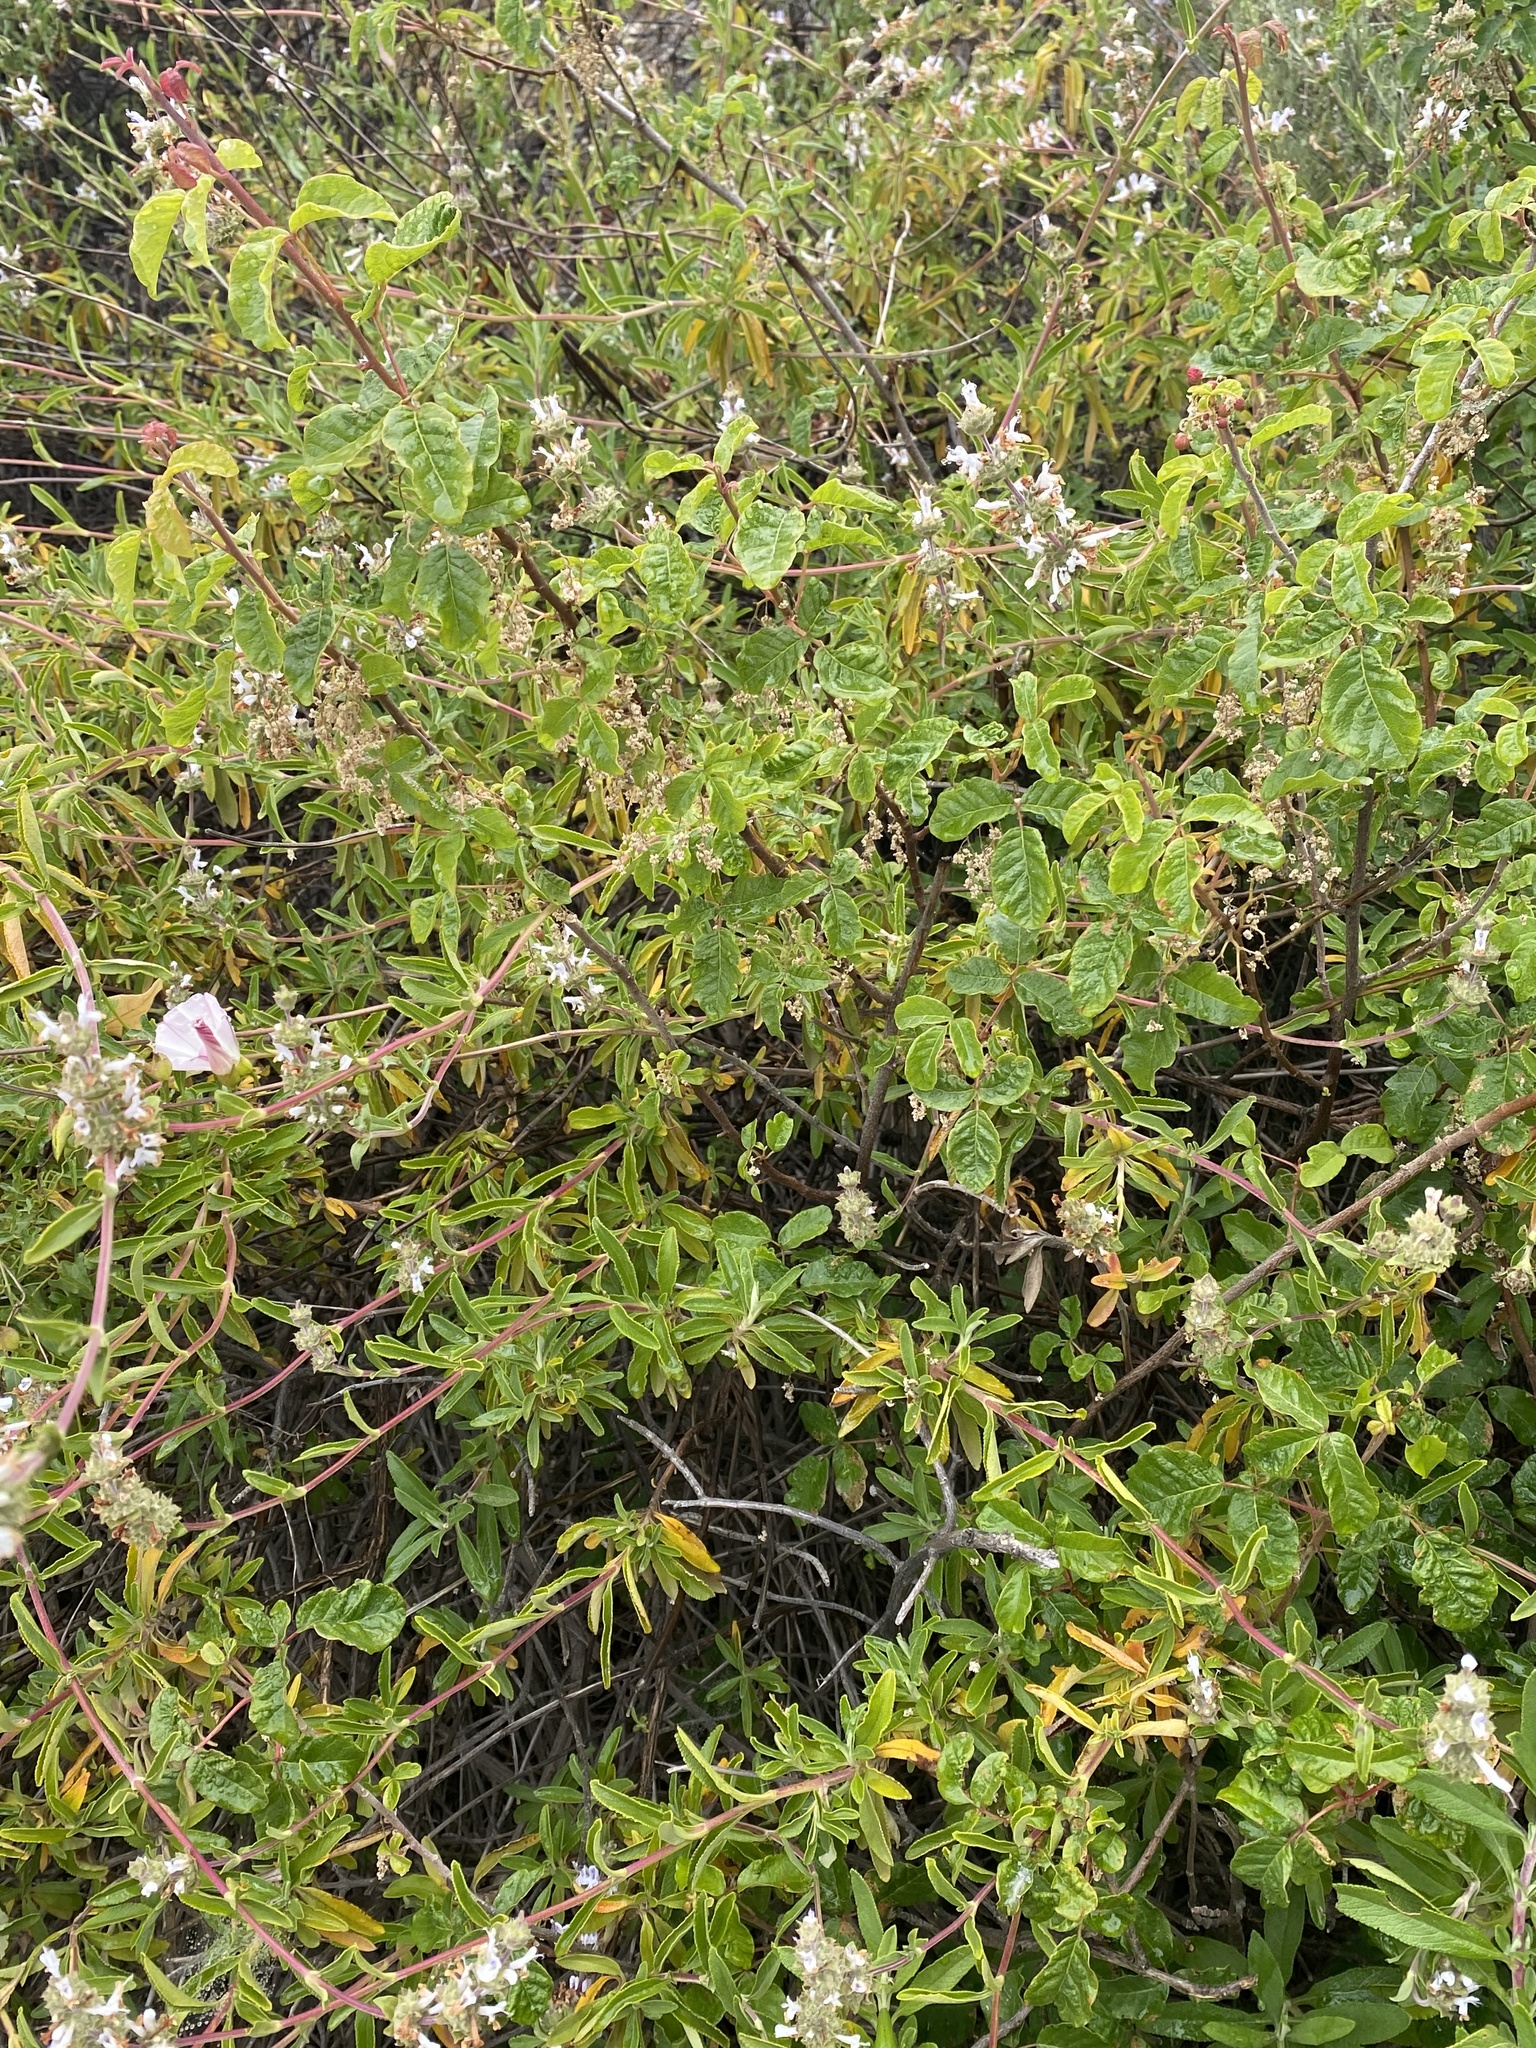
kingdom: Plantae
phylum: Tracheophyta
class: Magnoliopsida
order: Lamiales
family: Lamiaceae
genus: Salvia
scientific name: Salvia mellifera
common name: Black sage
